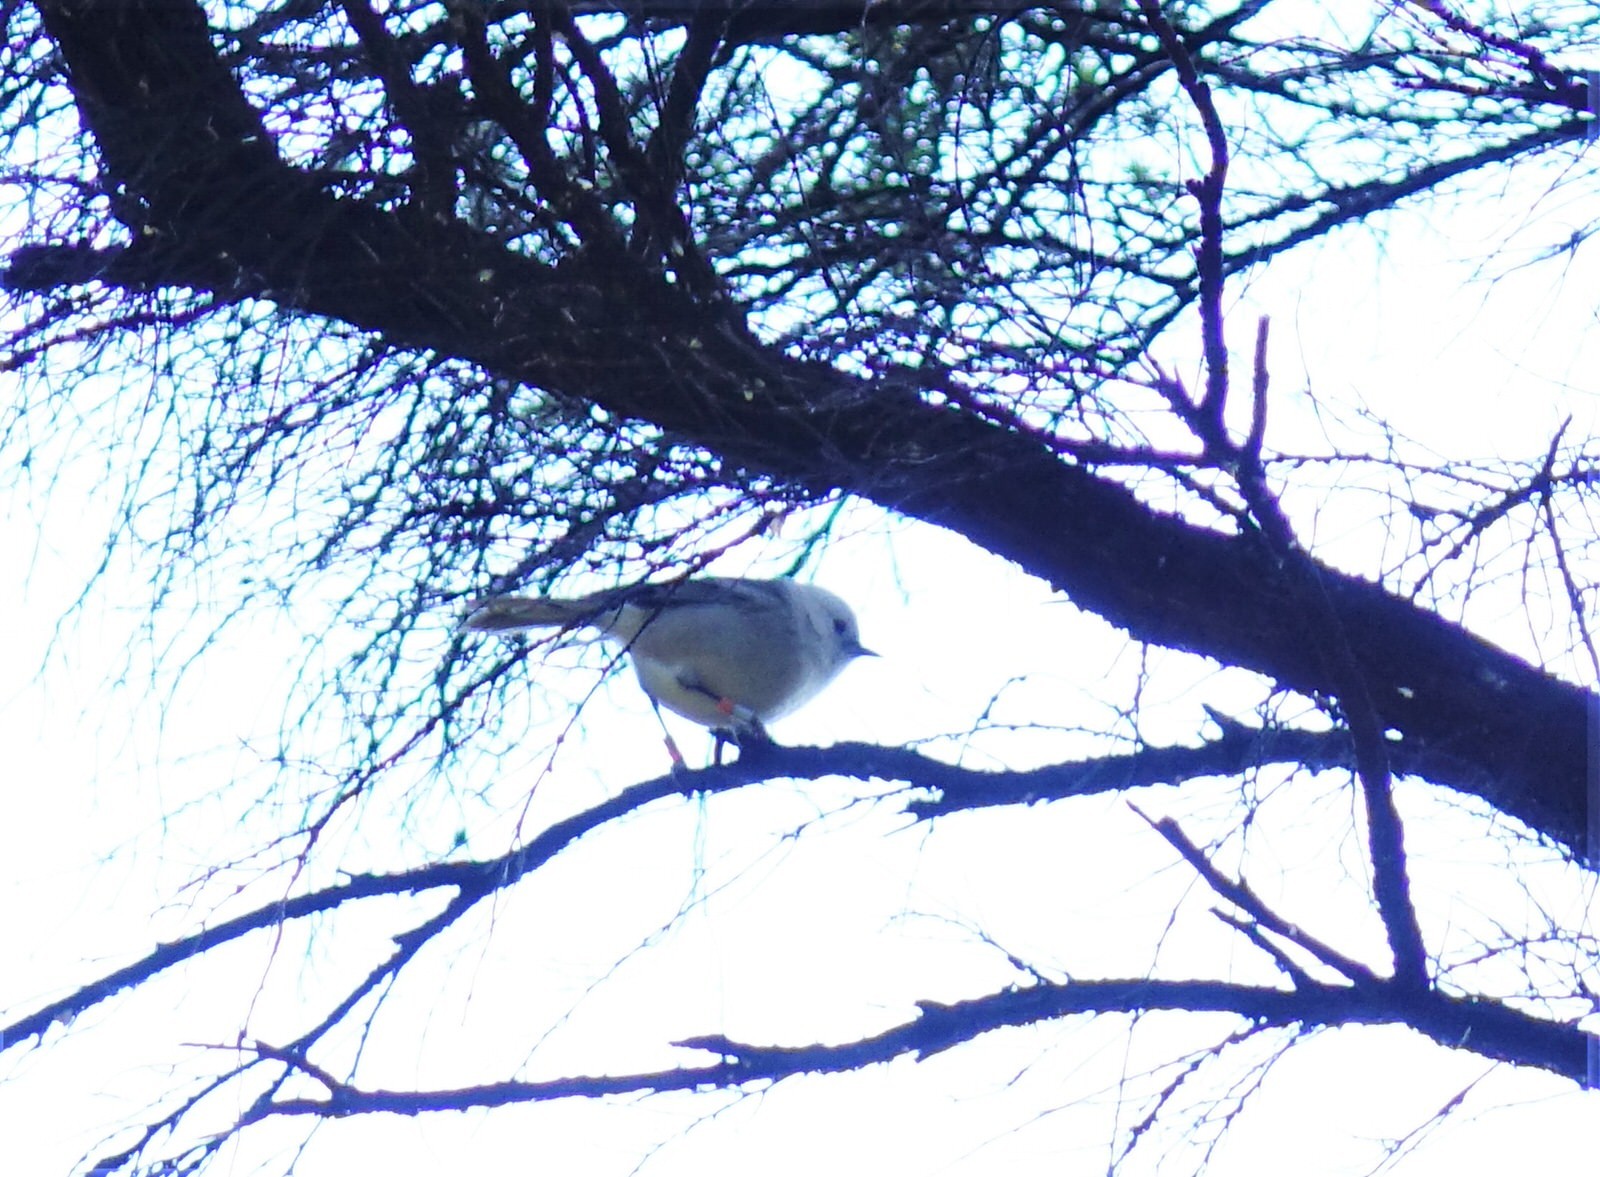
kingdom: Animalia
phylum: Chordata
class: Aves
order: Passeriformes
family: Acanthizidae
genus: Mohoua
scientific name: Mohoua albicilla
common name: Whitehead
